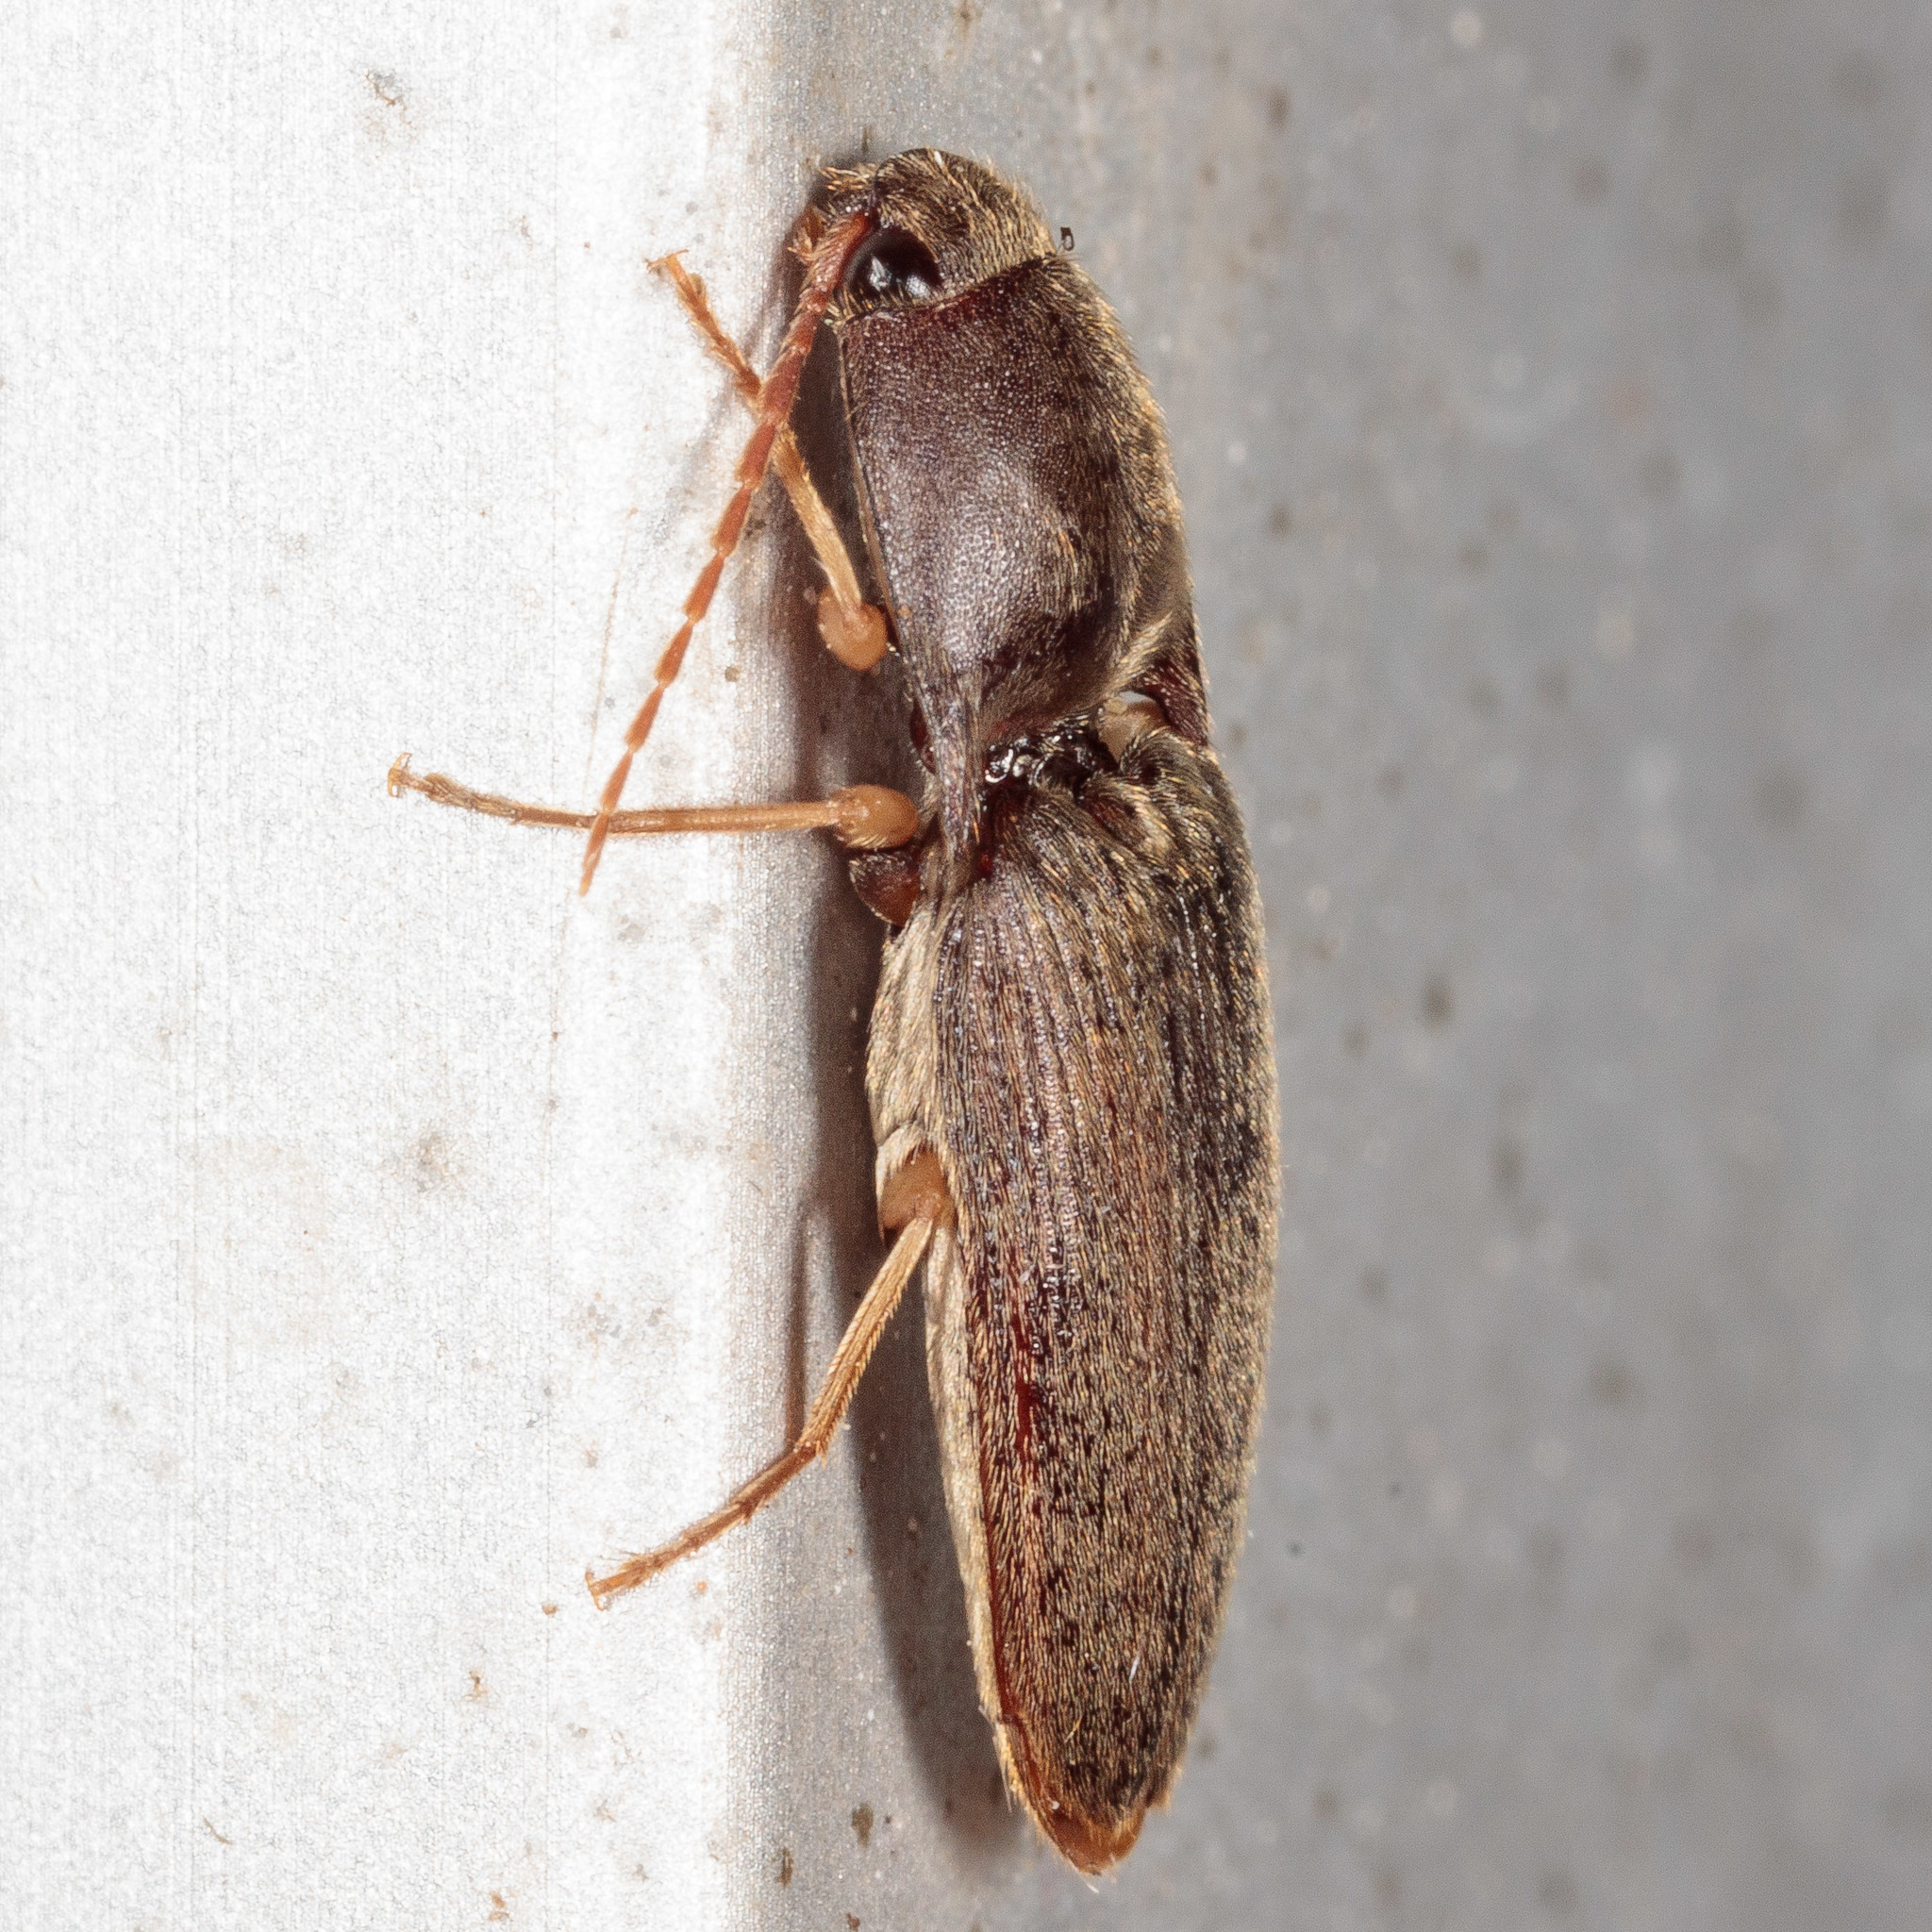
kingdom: Animalia
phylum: Arthropoda
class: Insecta
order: Coleoptera
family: Elateridae
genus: Conoderus
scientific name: Conoderus exsul
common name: Click beetle
